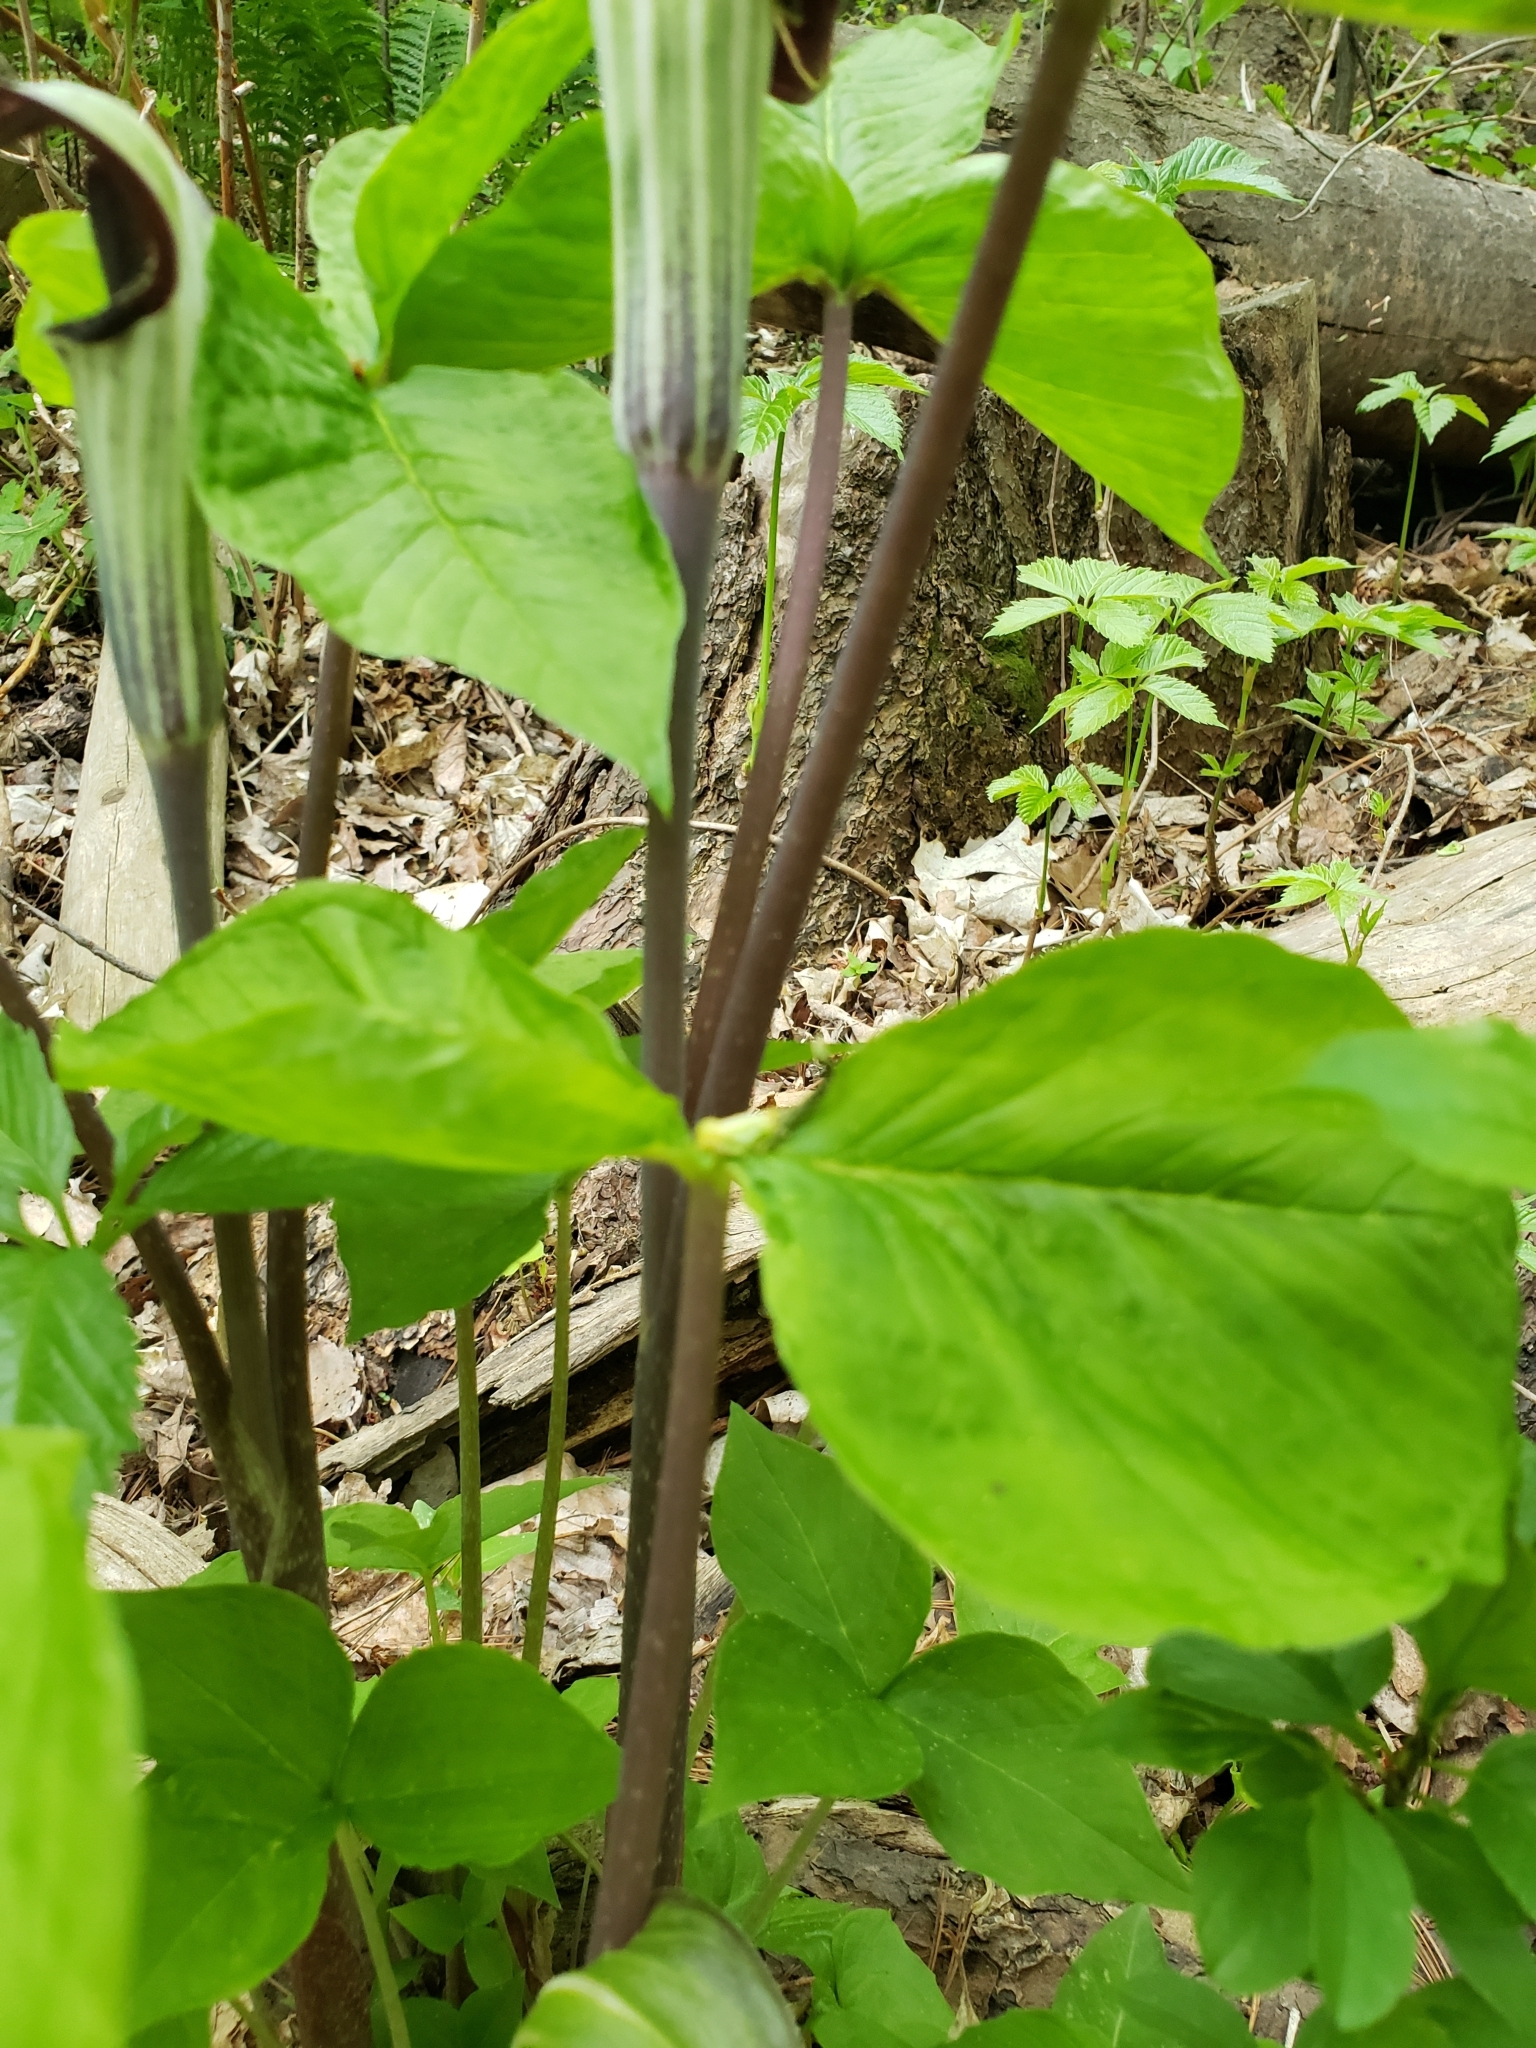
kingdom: Plantae
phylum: Tracheophyta
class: Liliopsida
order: Alismatales
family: Araceae
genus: Arisaema
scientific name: Arisaema triphyllum
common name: Jack-in-the-pulpit
